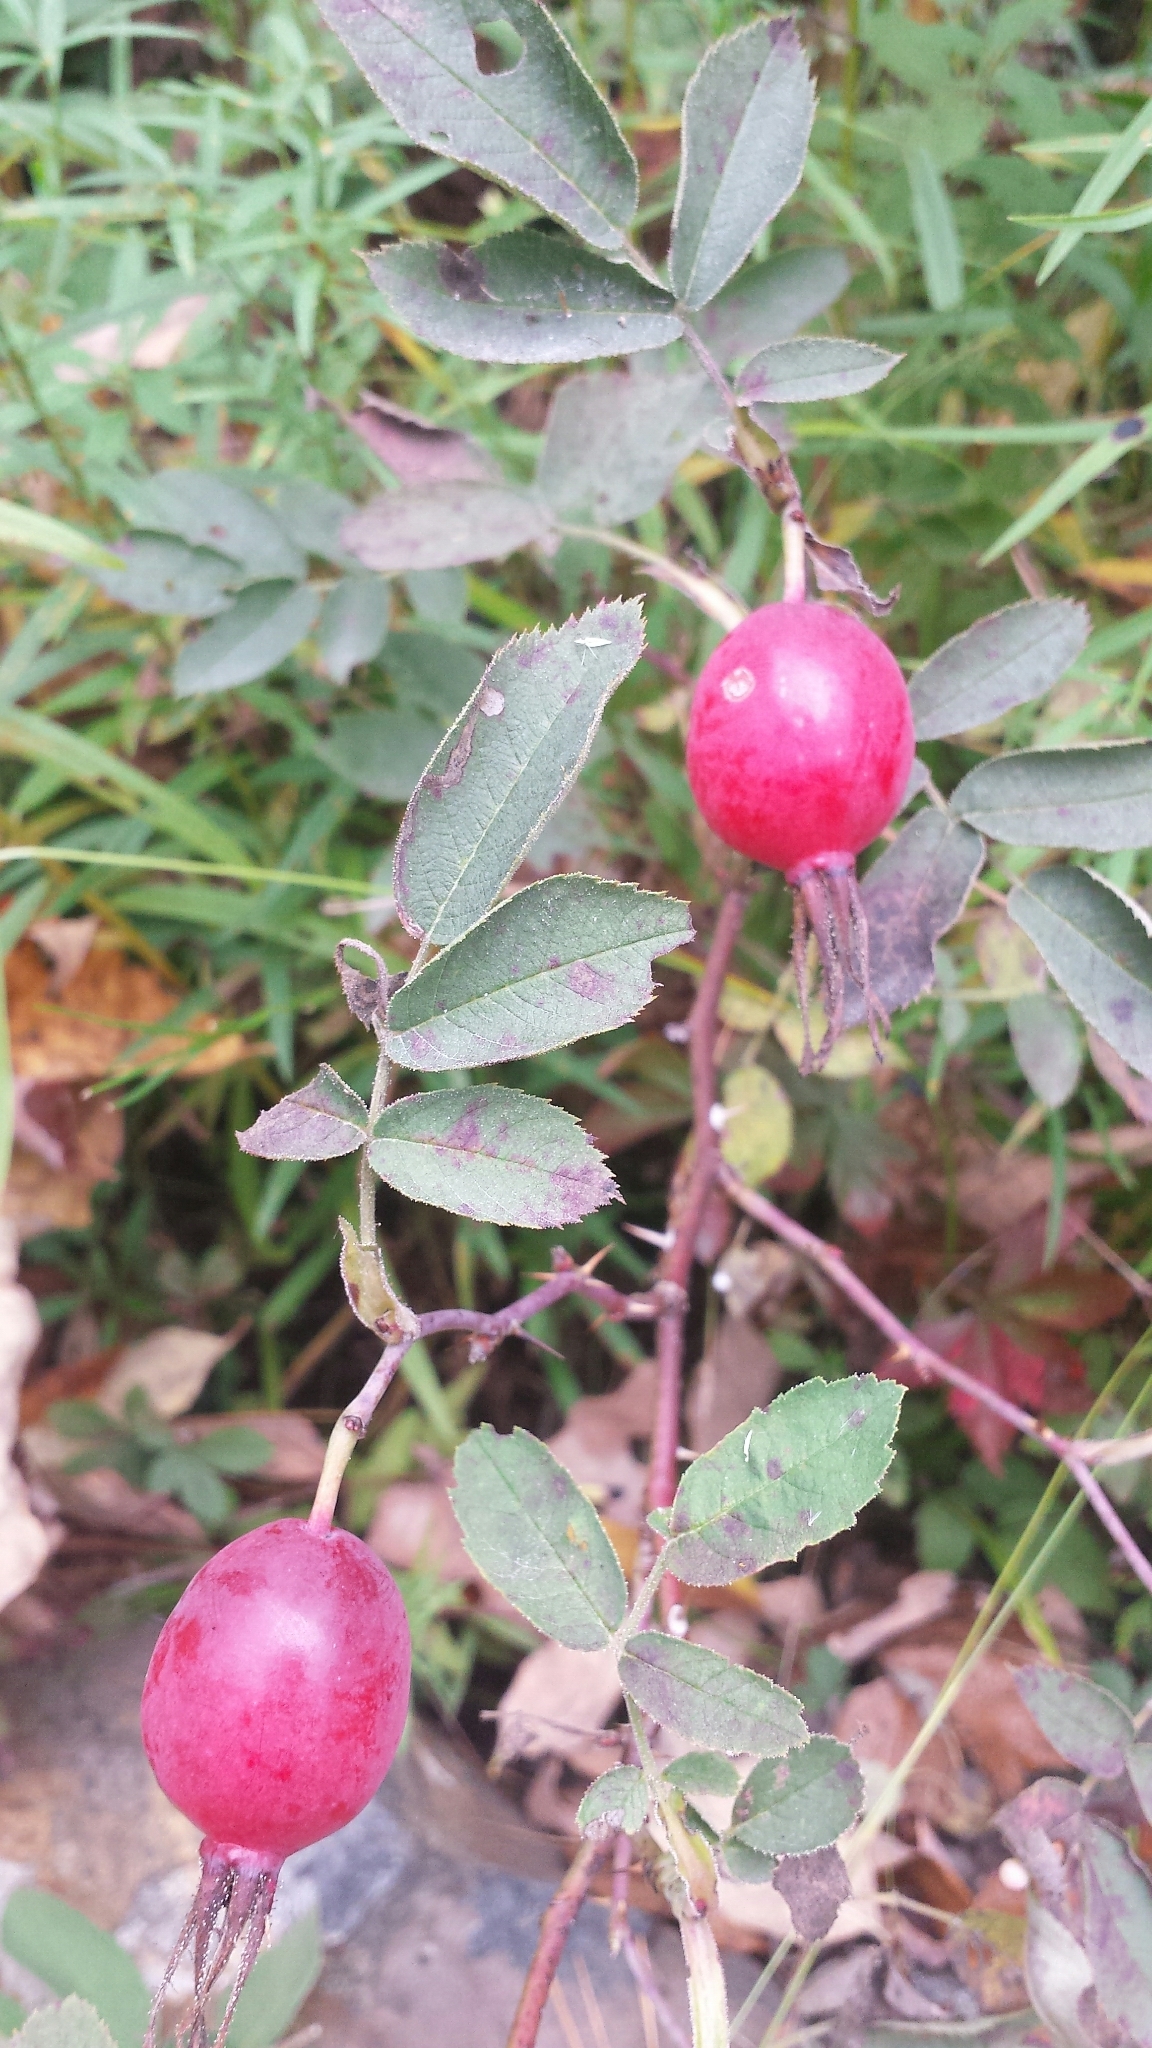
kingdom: Plantae
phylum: Tracheophyta
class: Magnoliopsida
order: Rosales
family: Rosaceae
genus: Rosa
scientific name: Rosa sherardii
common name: Sherard's downy rose
